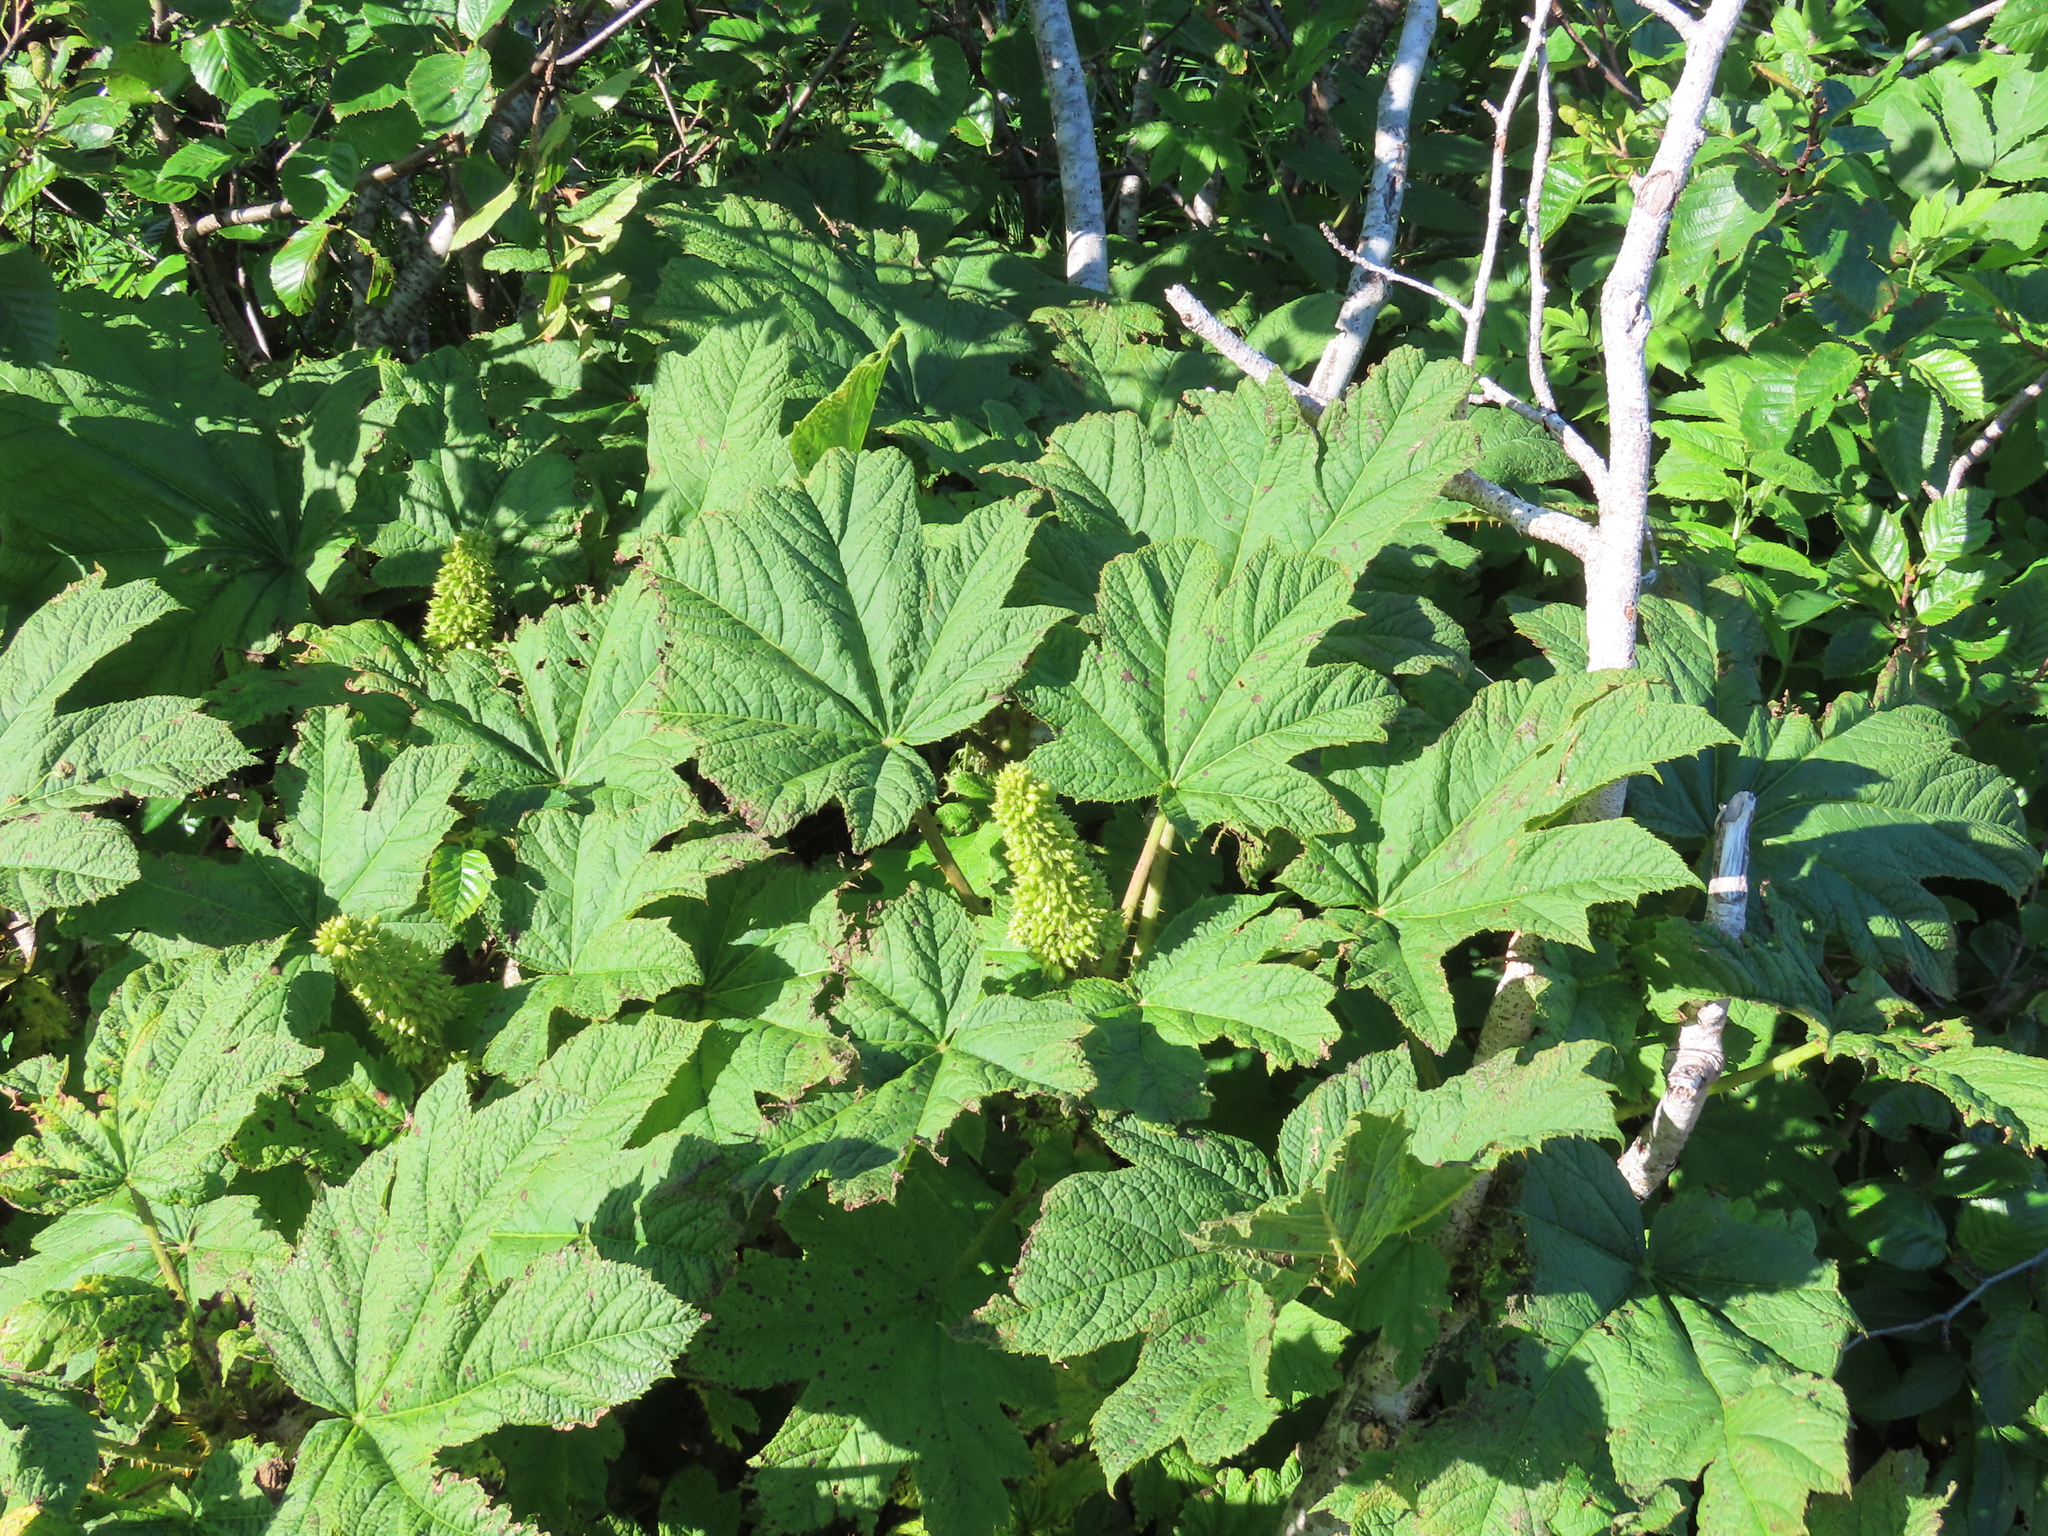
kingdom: Plantae
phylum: Tracheophyta
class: Magnoliopsida
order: Apiales
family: Araliaceae
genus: Oplopanax
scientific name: Oplopanax horridus
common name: Devil's walking-stick
